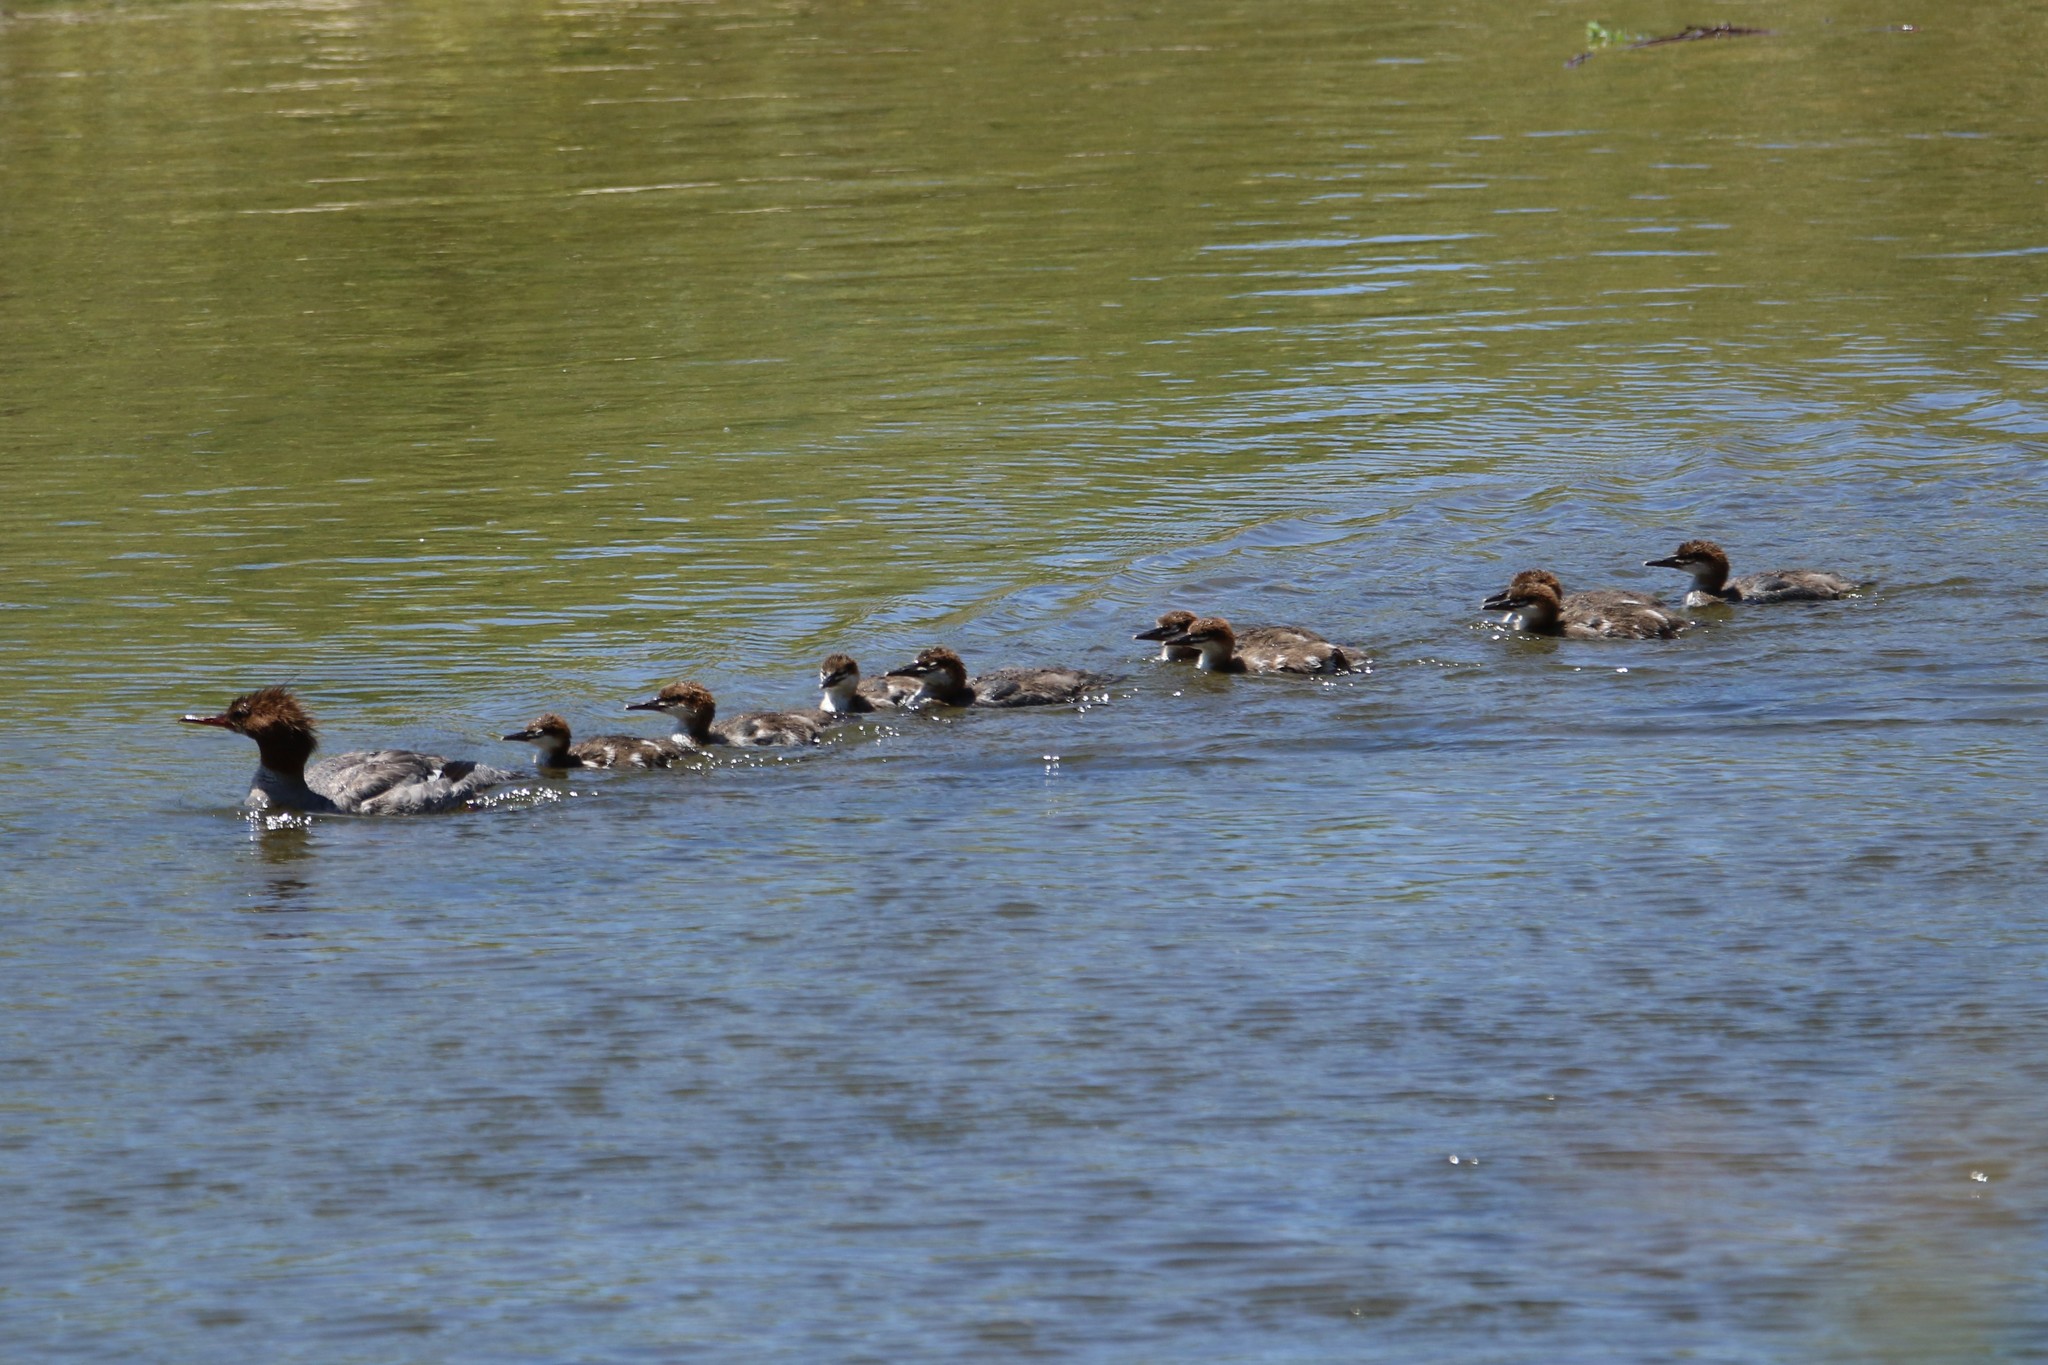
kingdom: Animalia
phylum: Chordata
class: Aves
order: Anseriformes
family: Anatidae
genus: Mergus
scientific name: Mergus merganser
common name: Common merganser
